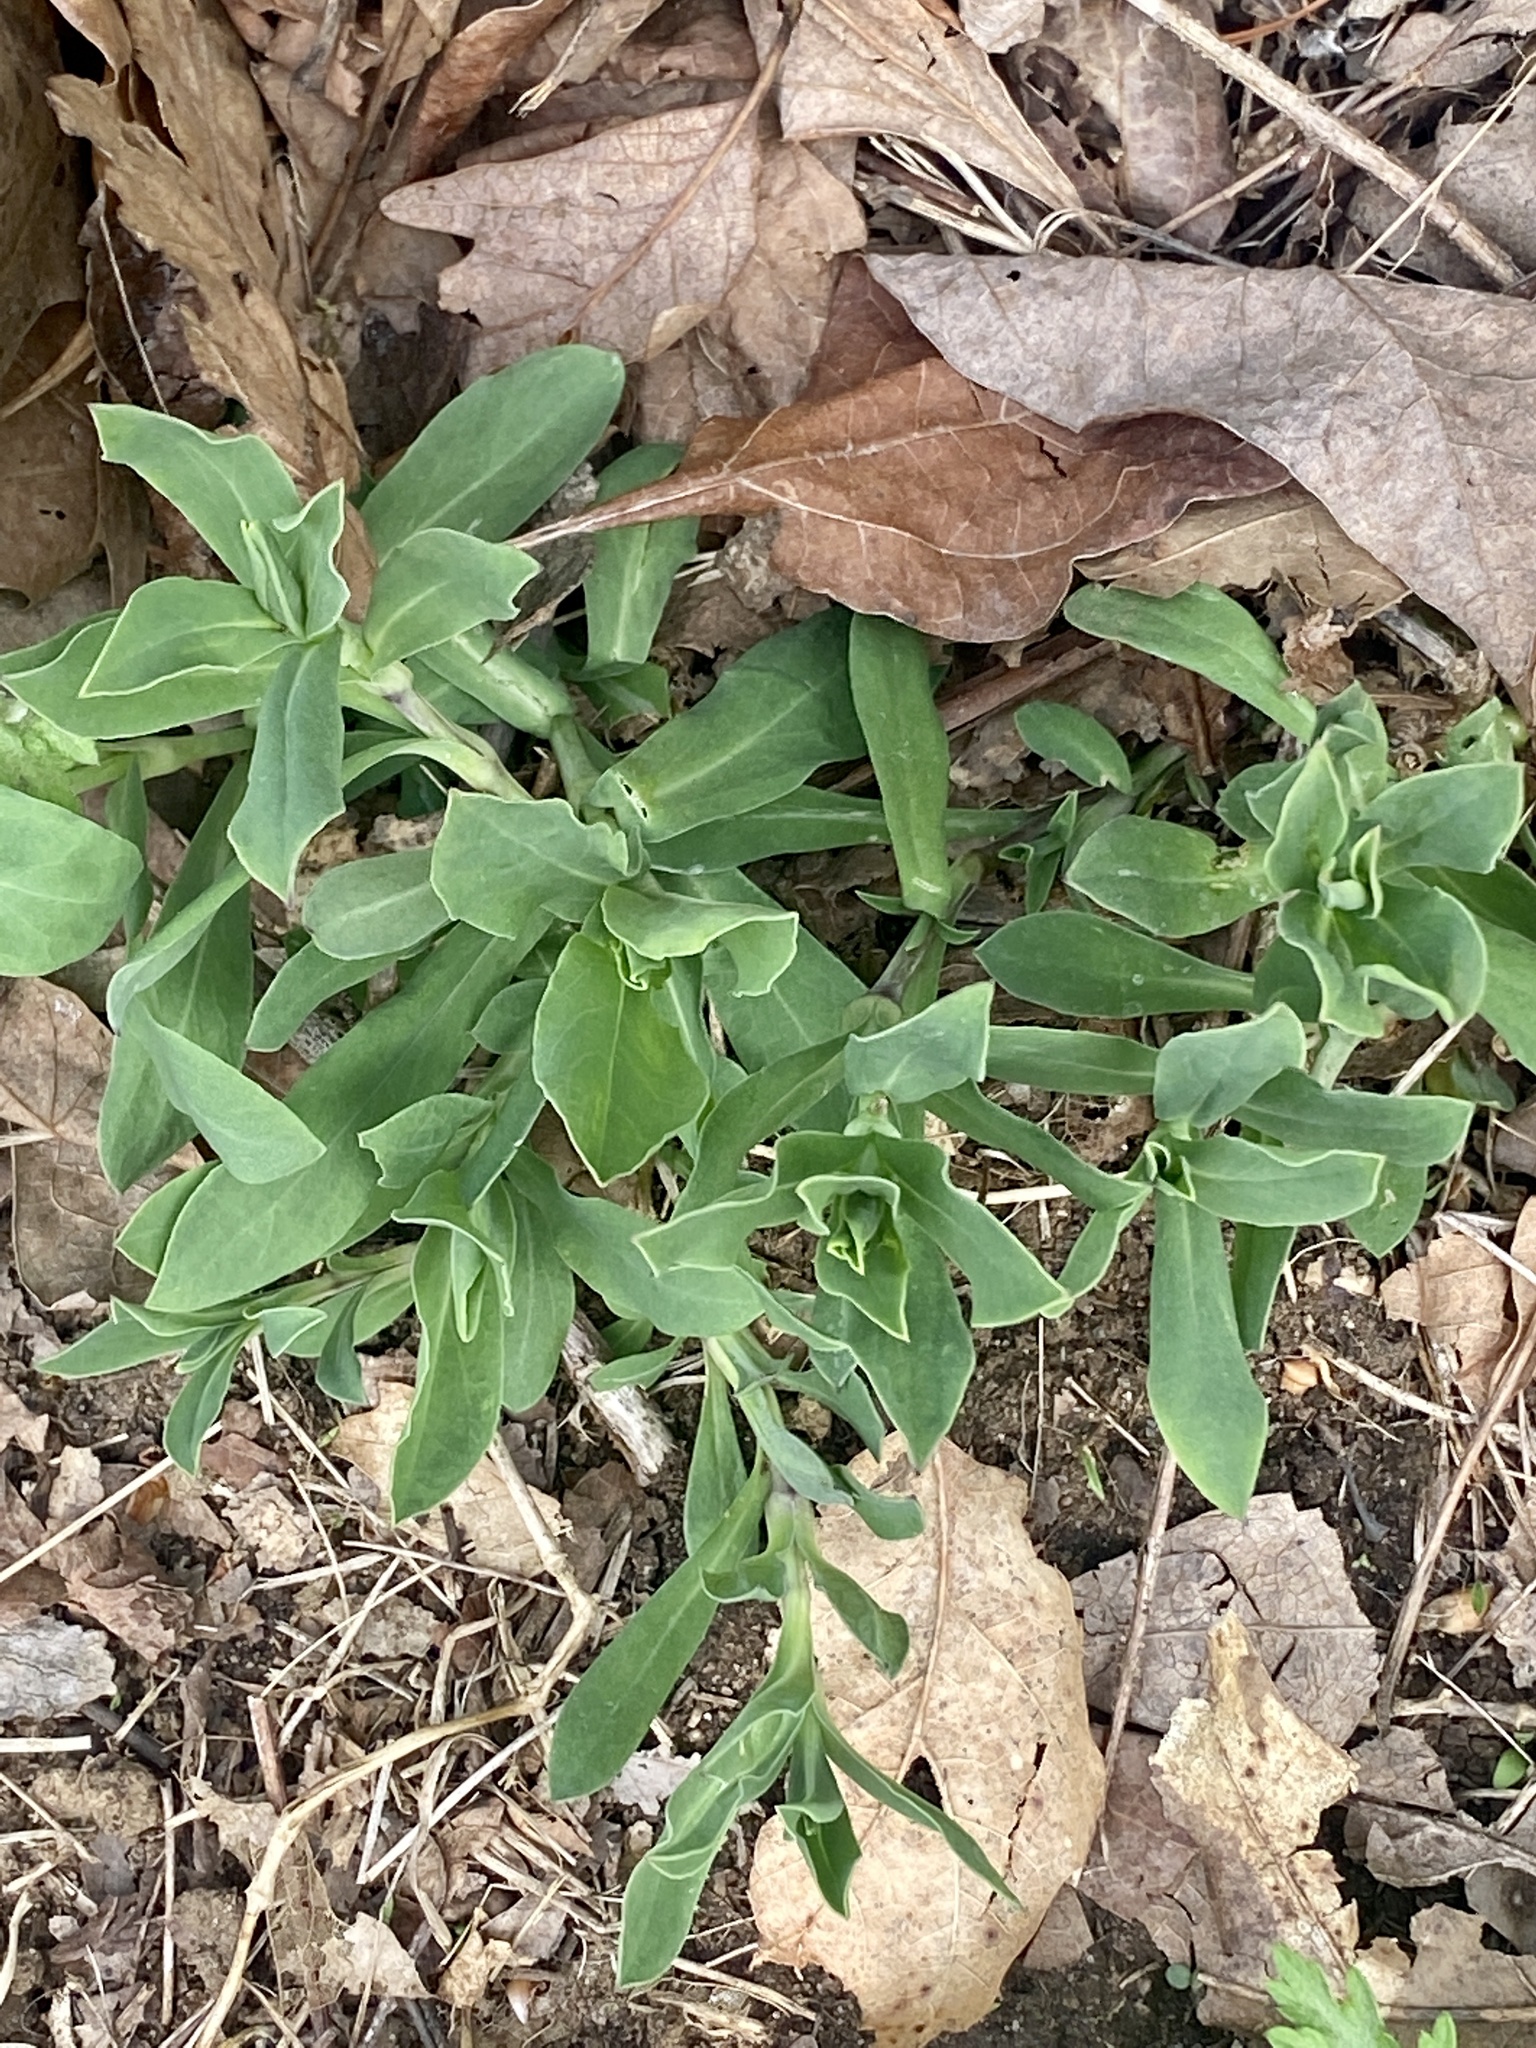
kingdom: Plantae
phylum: Tracheophyta
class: Magnoliopsida
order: Caryophyllales
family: Caryophyllaceae
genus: Silene
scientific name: Silene vulgaris
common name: Bladder campion
